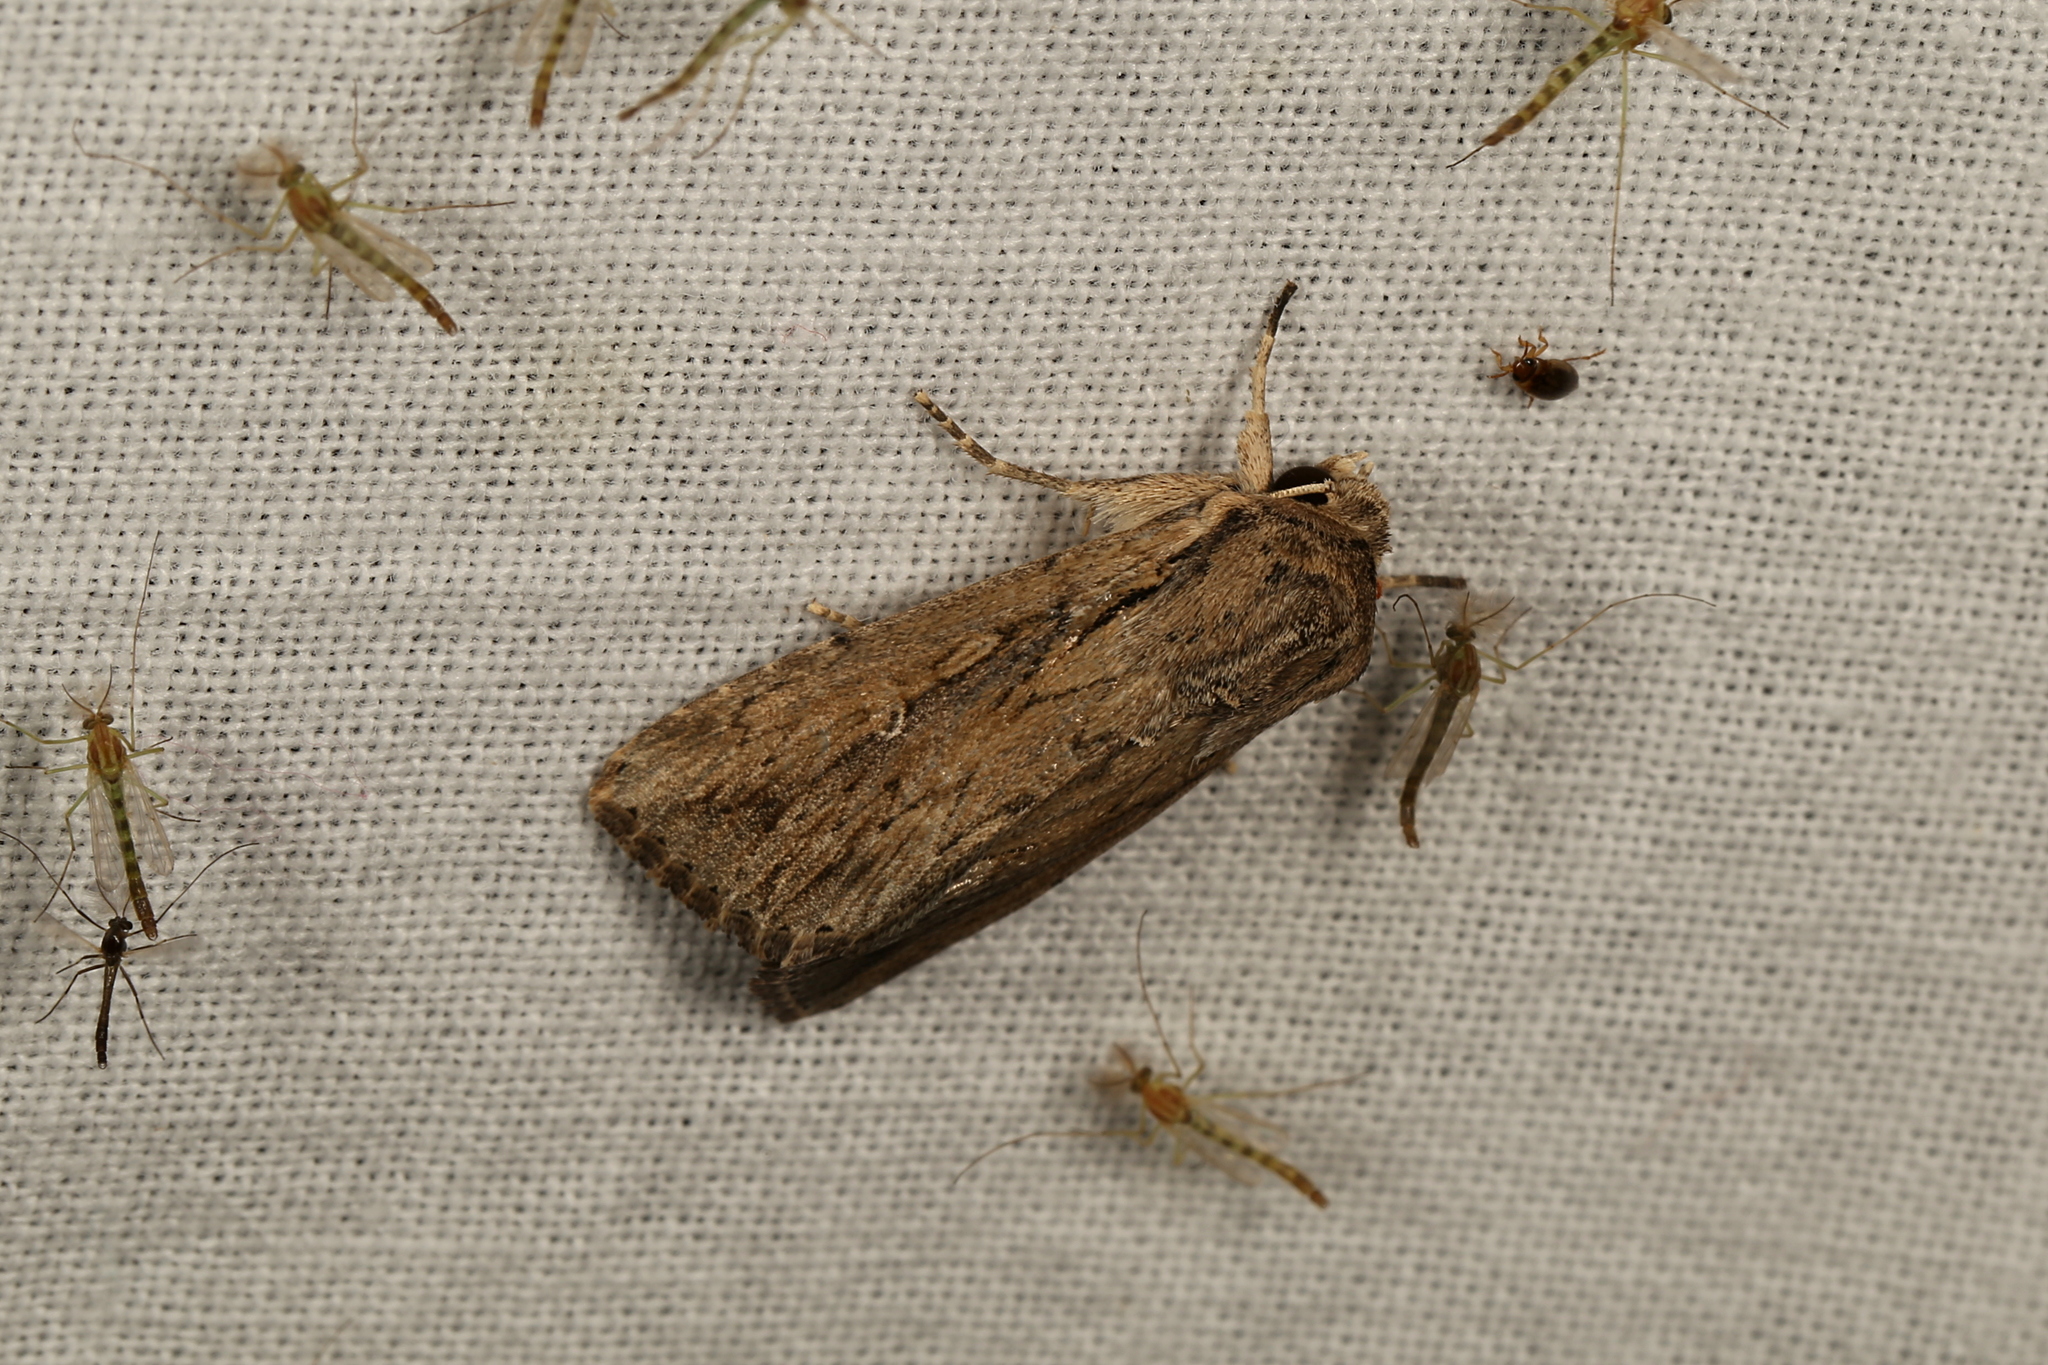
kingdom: Animalia
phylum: Arthropoda
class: Insecta
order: Lepidoptera
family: Noctuidae
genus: Persectania
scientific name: Persectania ewingii
